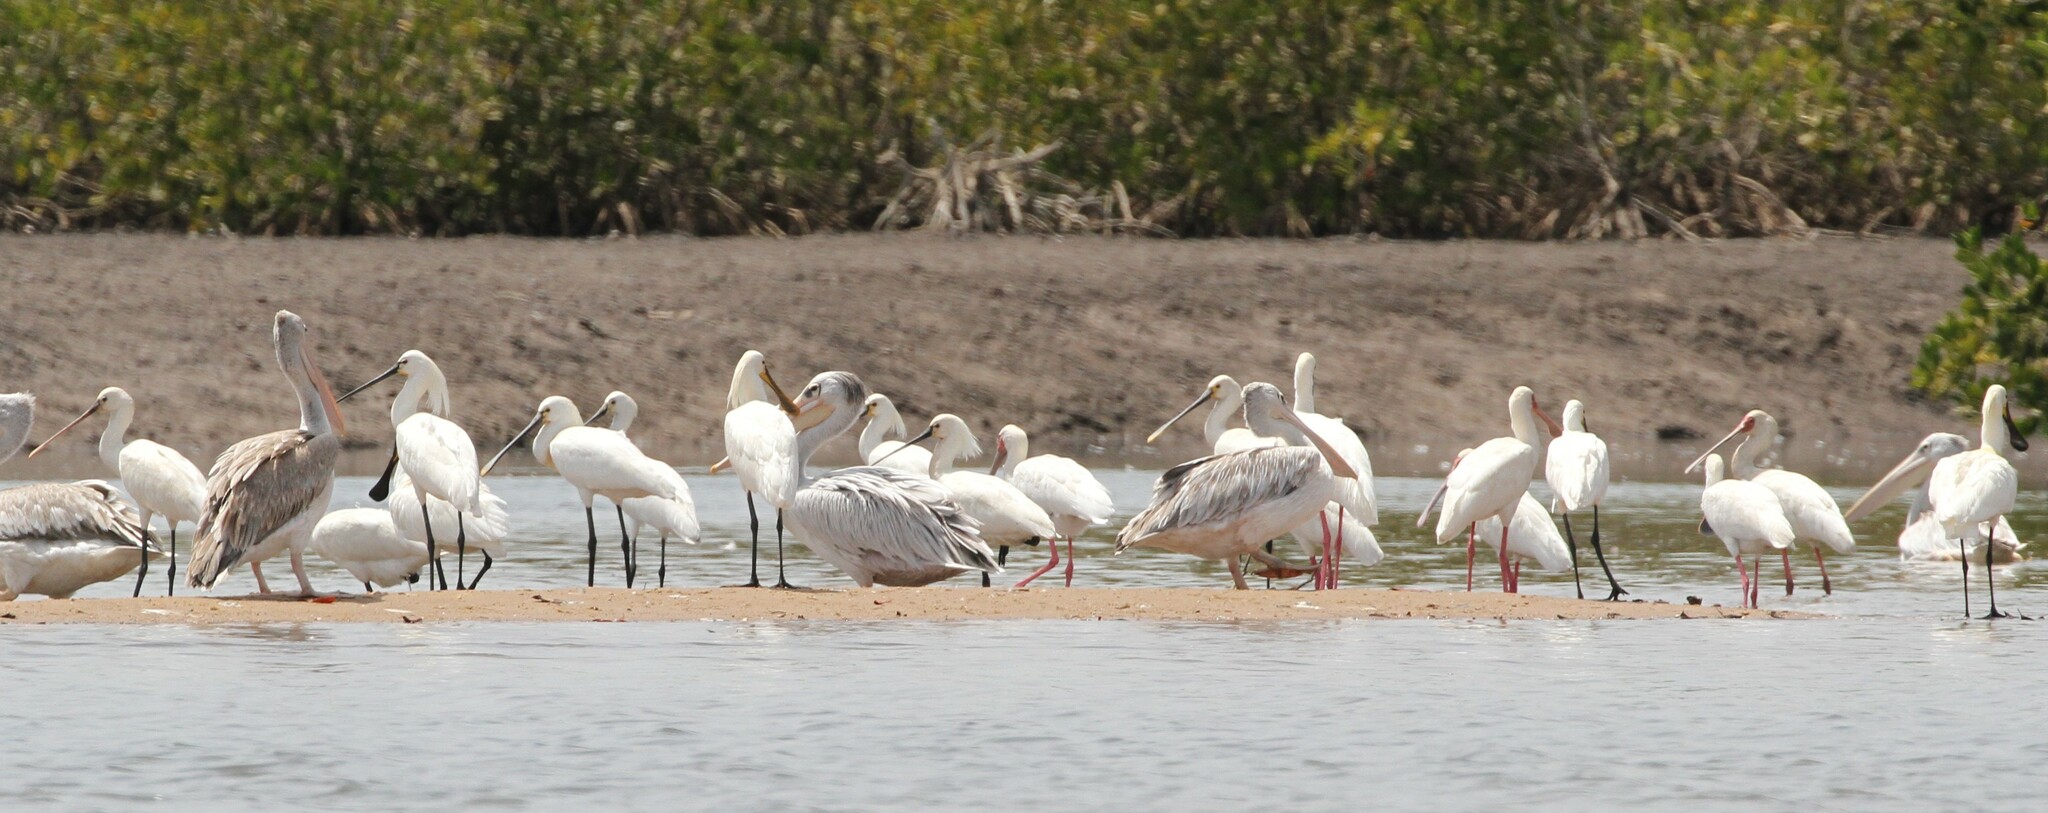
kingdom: Animalia
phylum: Chordata
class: Aves
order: Pelecaniformes
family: Threskiornithidae
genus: Platalea
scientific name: Platalea leucorodia
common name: Eurasian spoonbill
